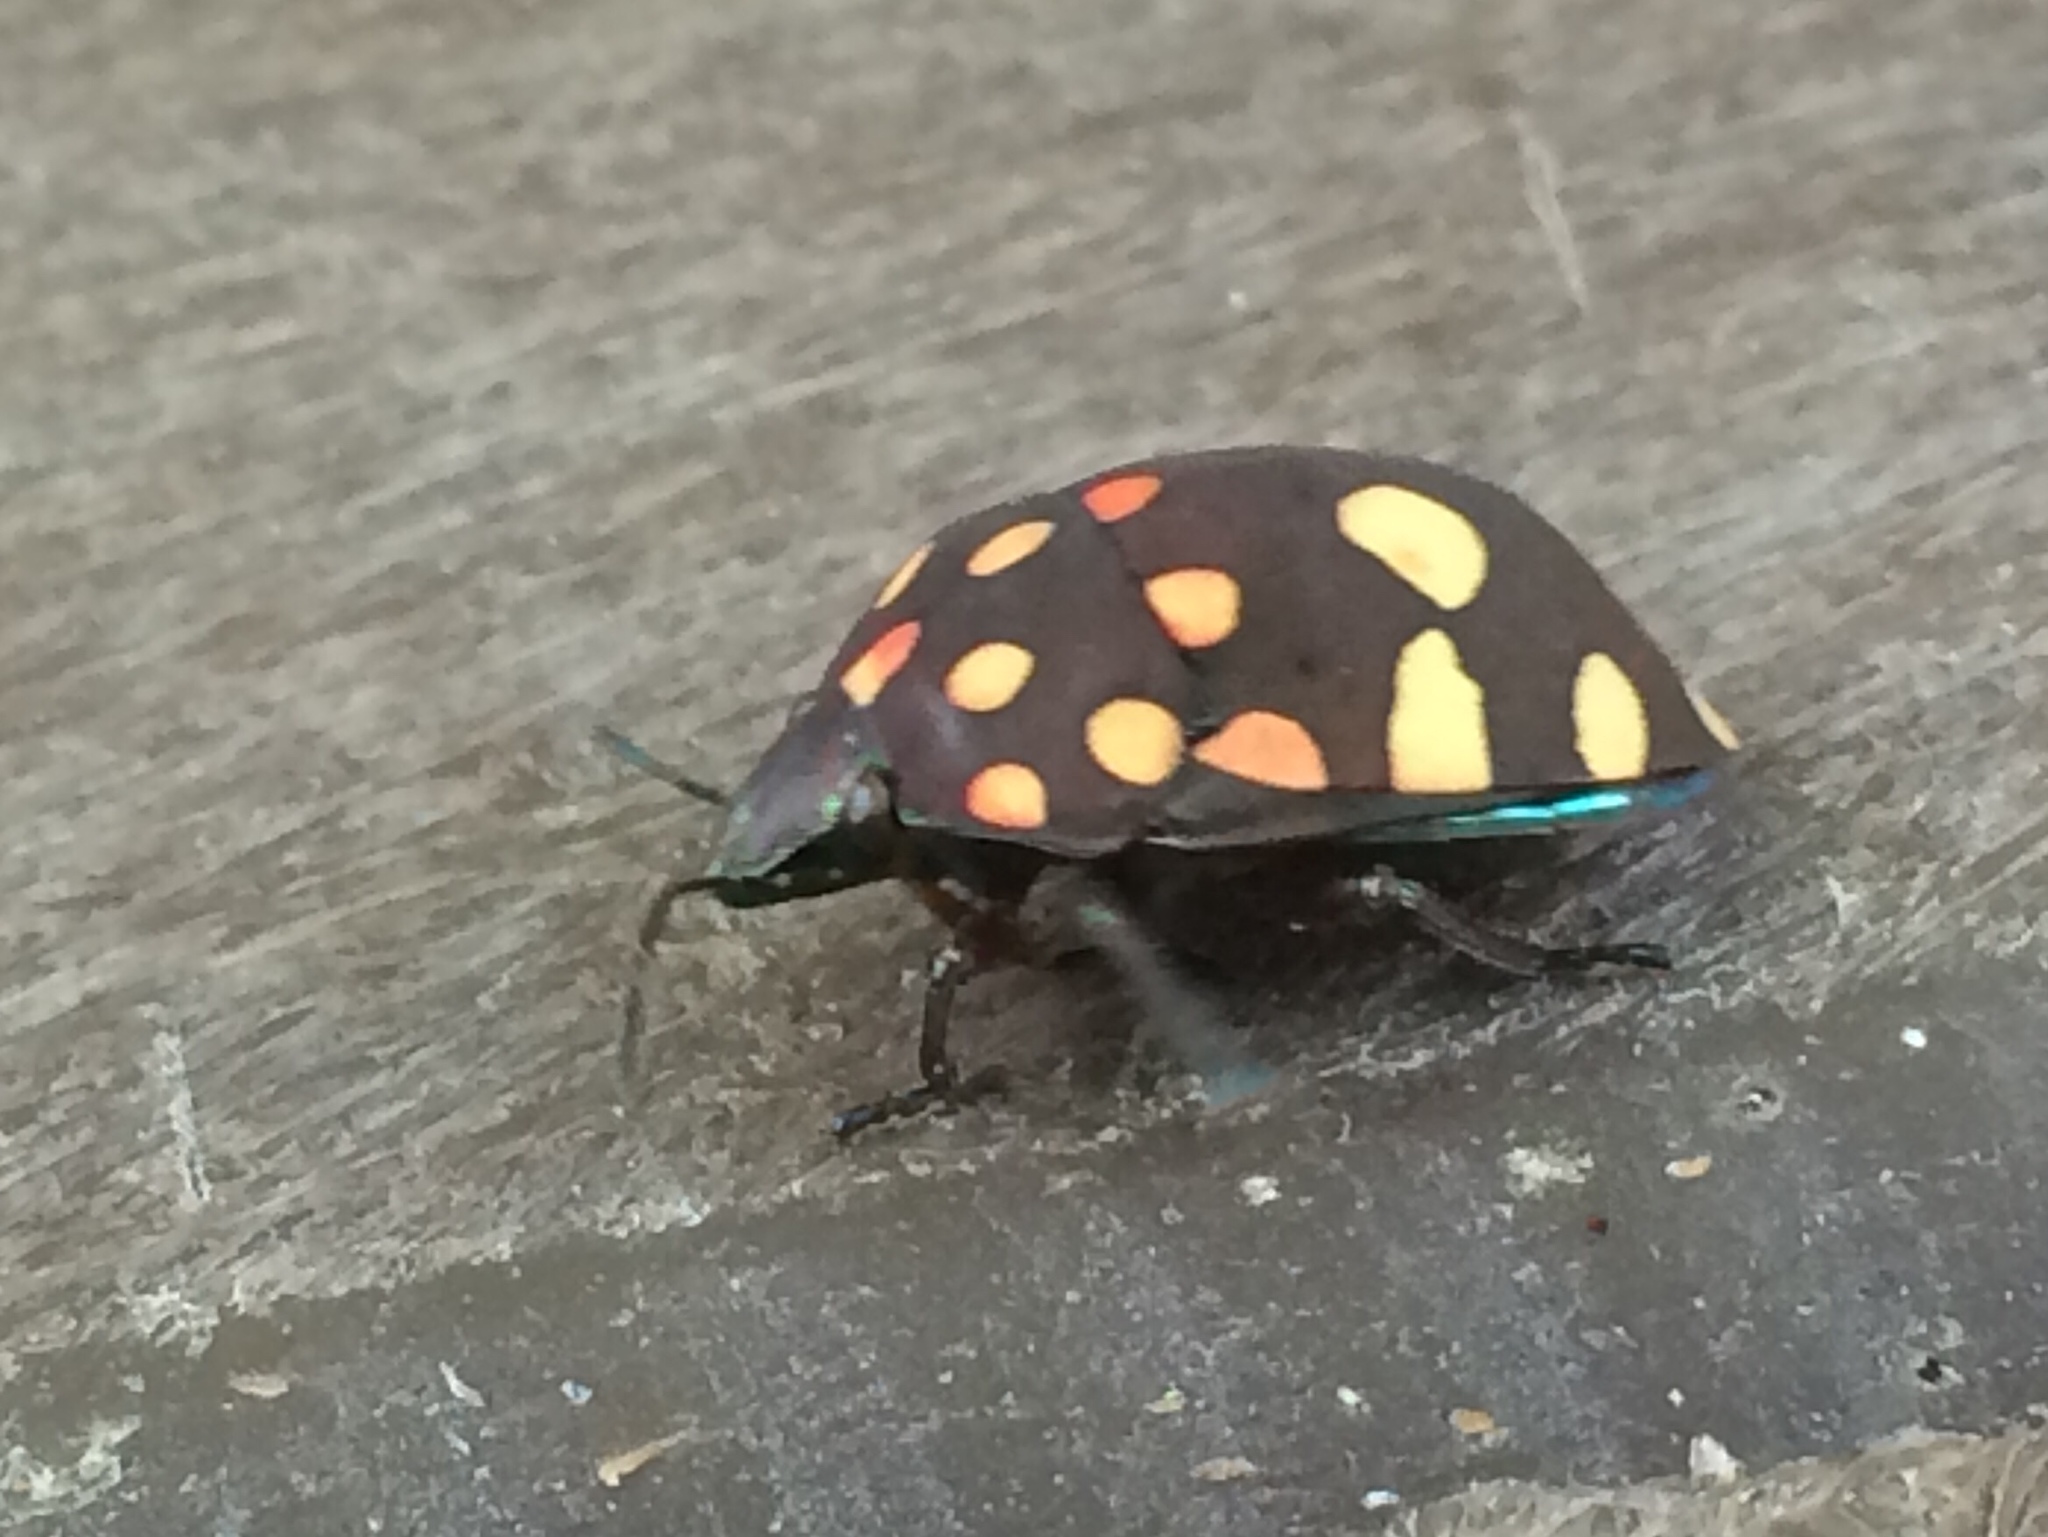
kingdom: Animalia
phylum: Arthropoda
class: Insecta
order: Hemiptera
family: Scutelleridae
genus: Pachycoris
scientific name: Pachycoris torridus
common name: Torrid jewel bug
